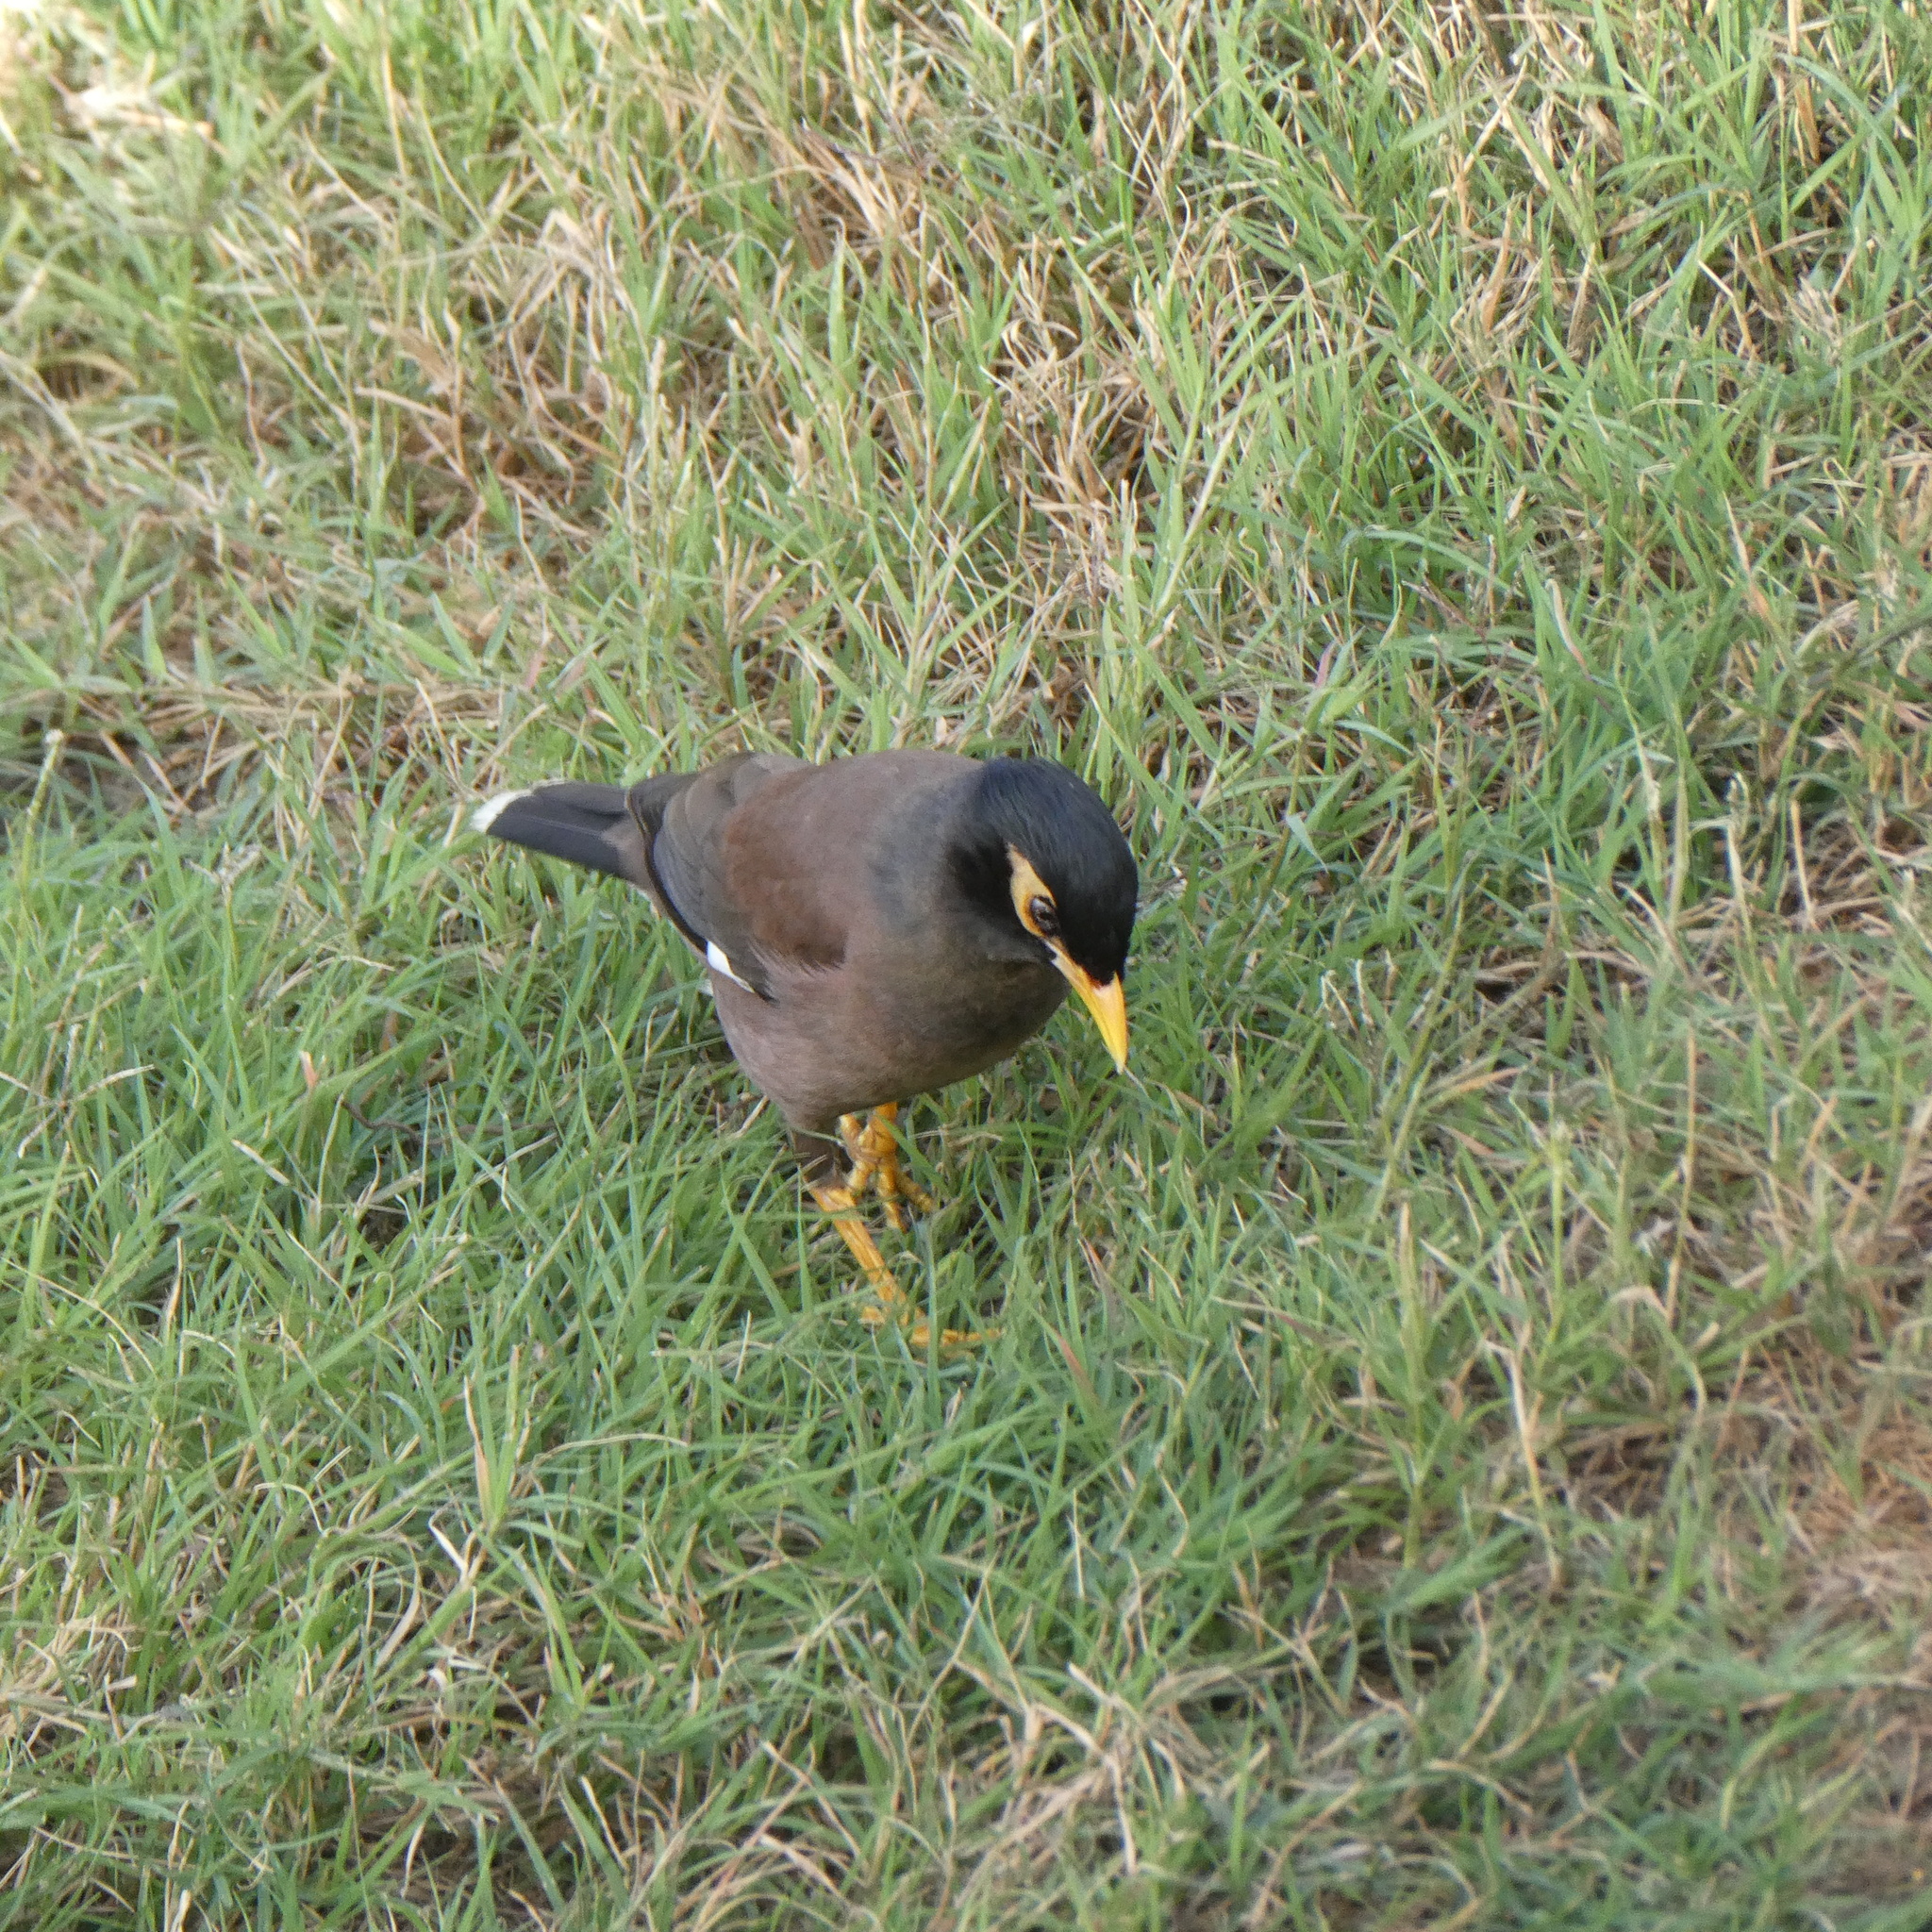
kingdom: Animalia
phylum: Chordata
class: Aves
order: Passeriformes
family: Sturnidae
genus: Acridotheres
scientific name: Acridotheres tristis
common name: Common myna
